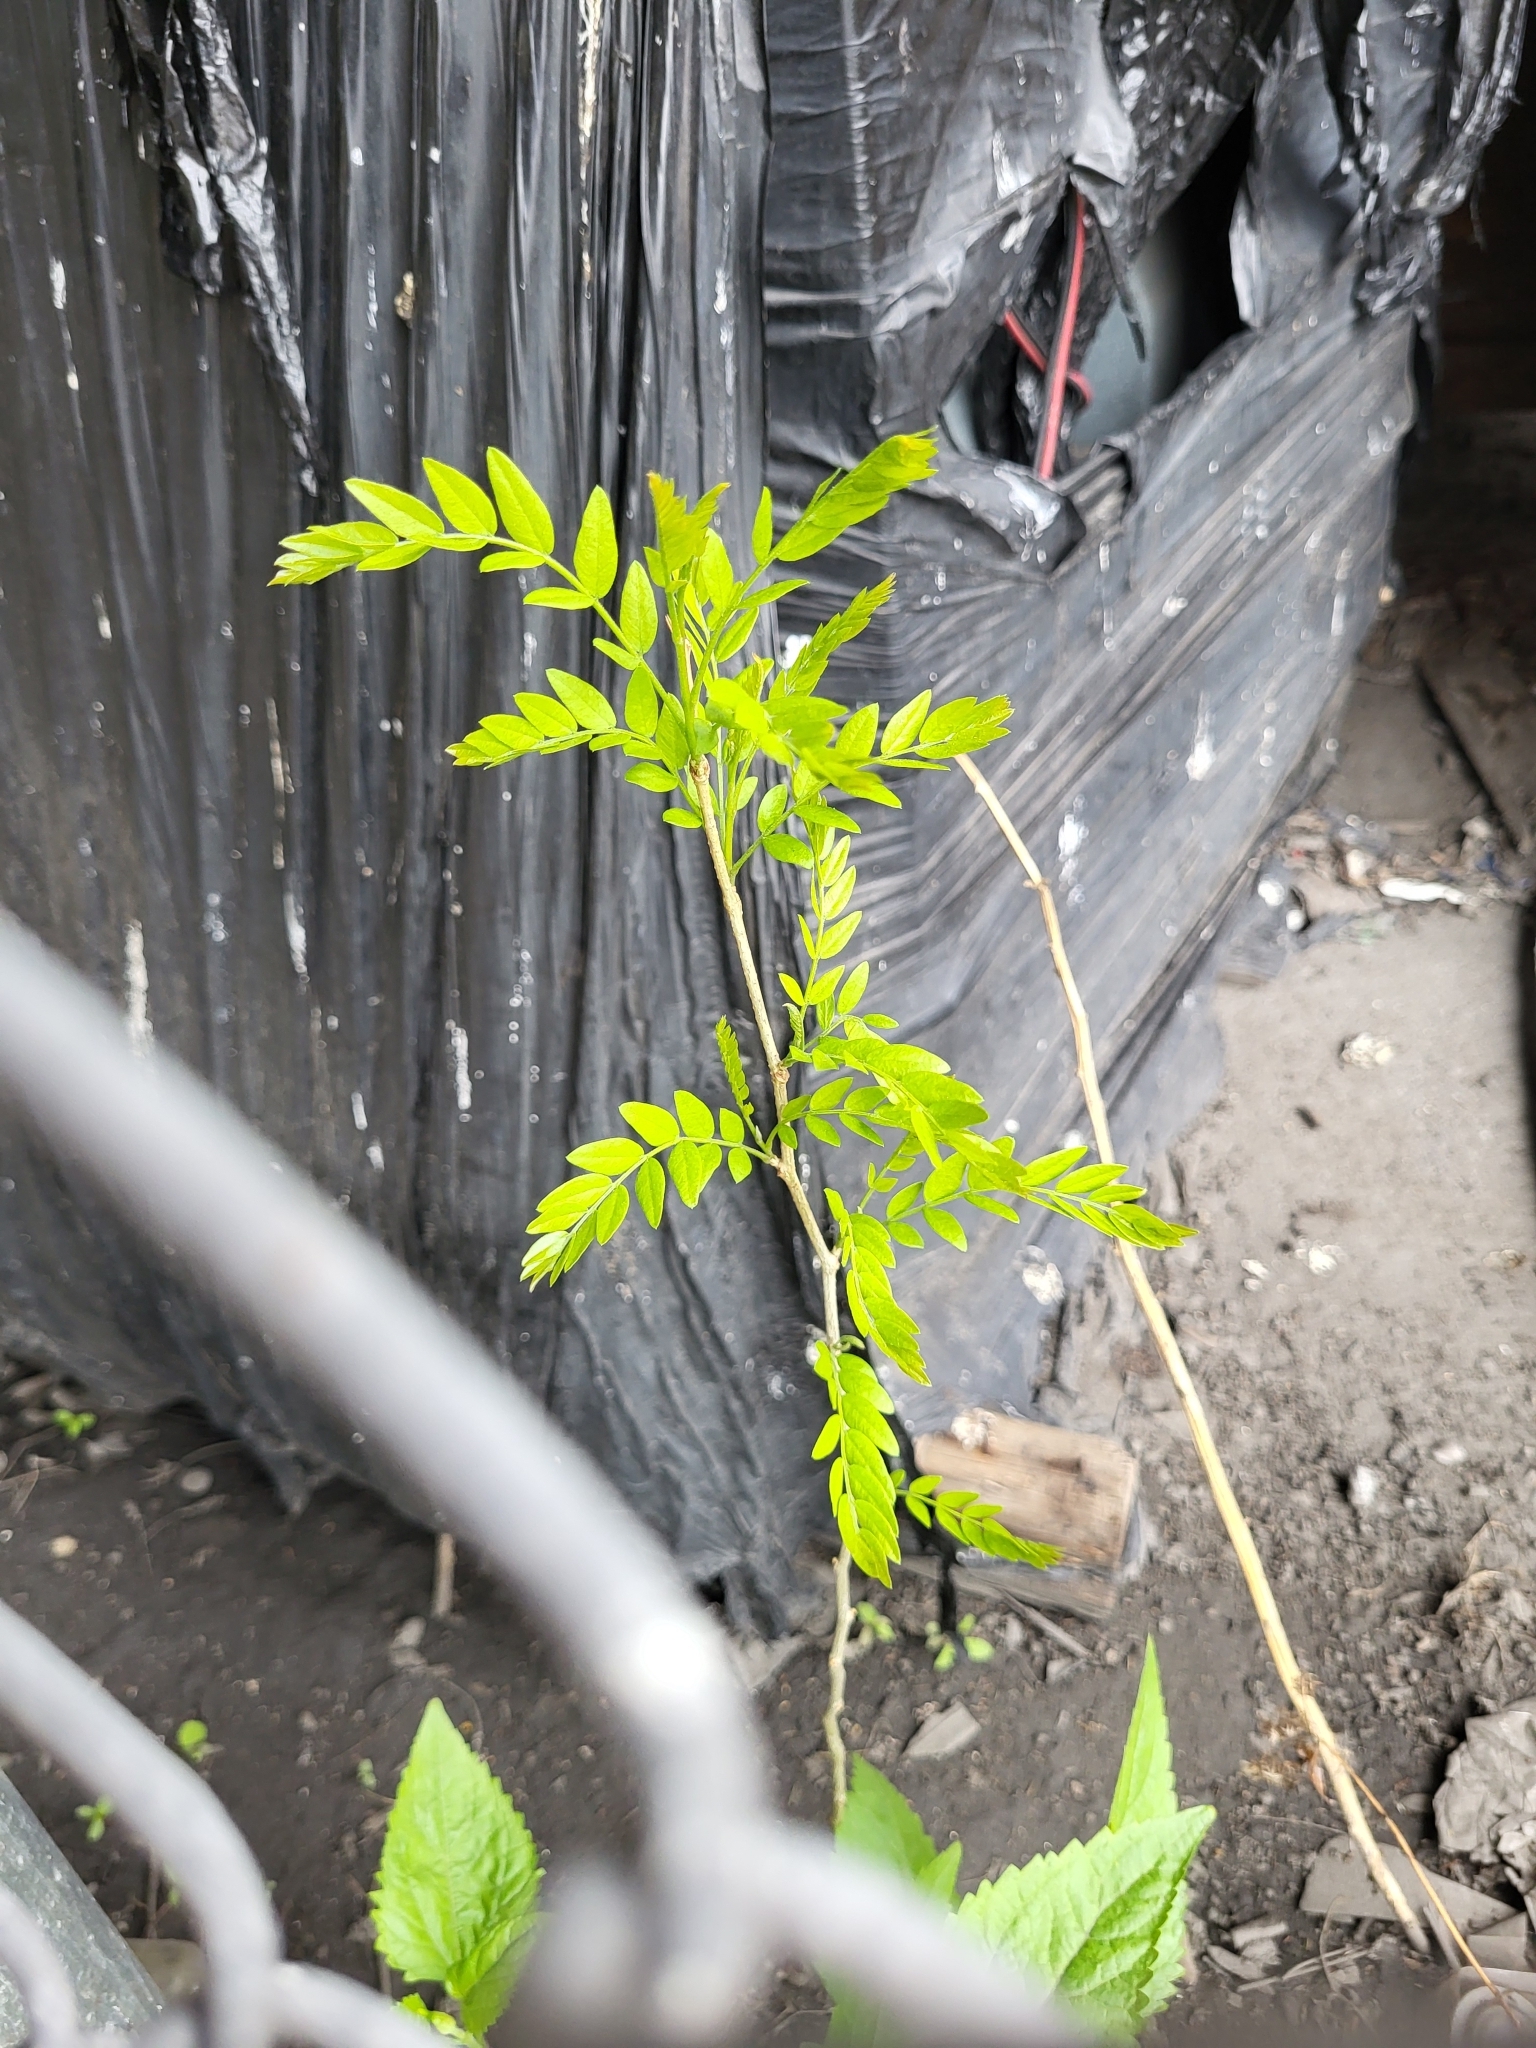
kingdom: Plantae
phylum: Tracheophyta
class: Magnoliopsida
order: Fabales
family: Fabaceae
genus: Gleditsia
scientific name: Gleditsia triacanthos
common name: Common honeylocust
